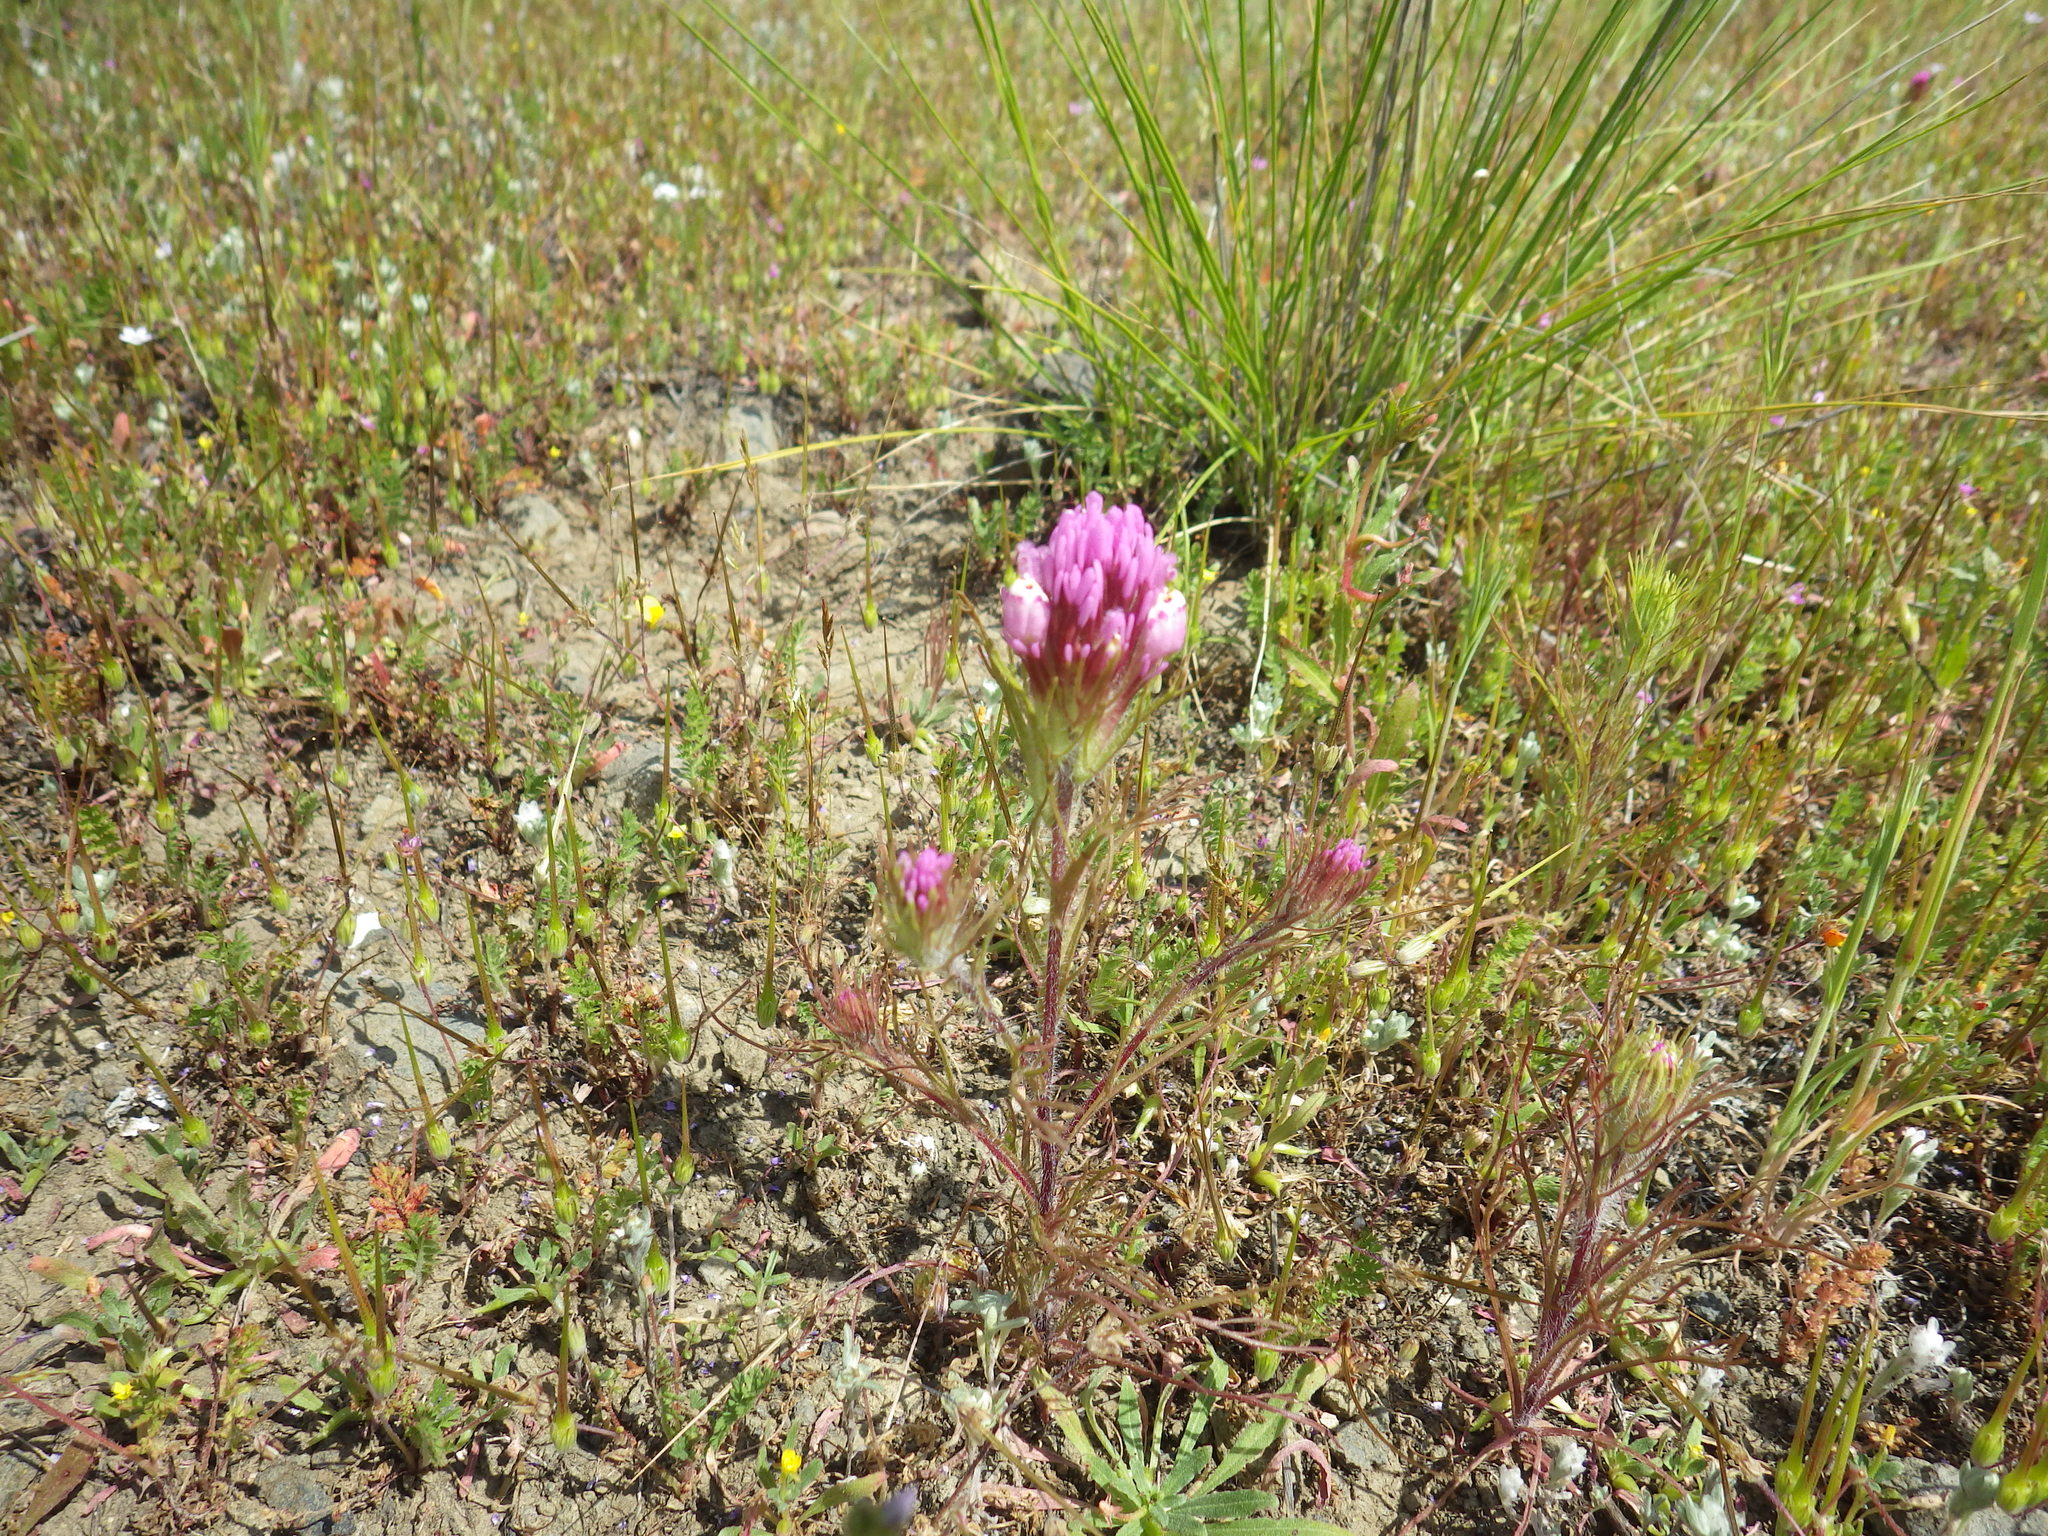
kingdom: Plantae
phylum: Tracheophyta
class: Magnoliopsida
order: Lamiales
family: Orobanchaceae
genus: Castilleja
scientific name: Castilleja exserta
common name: Purple owl-clover
